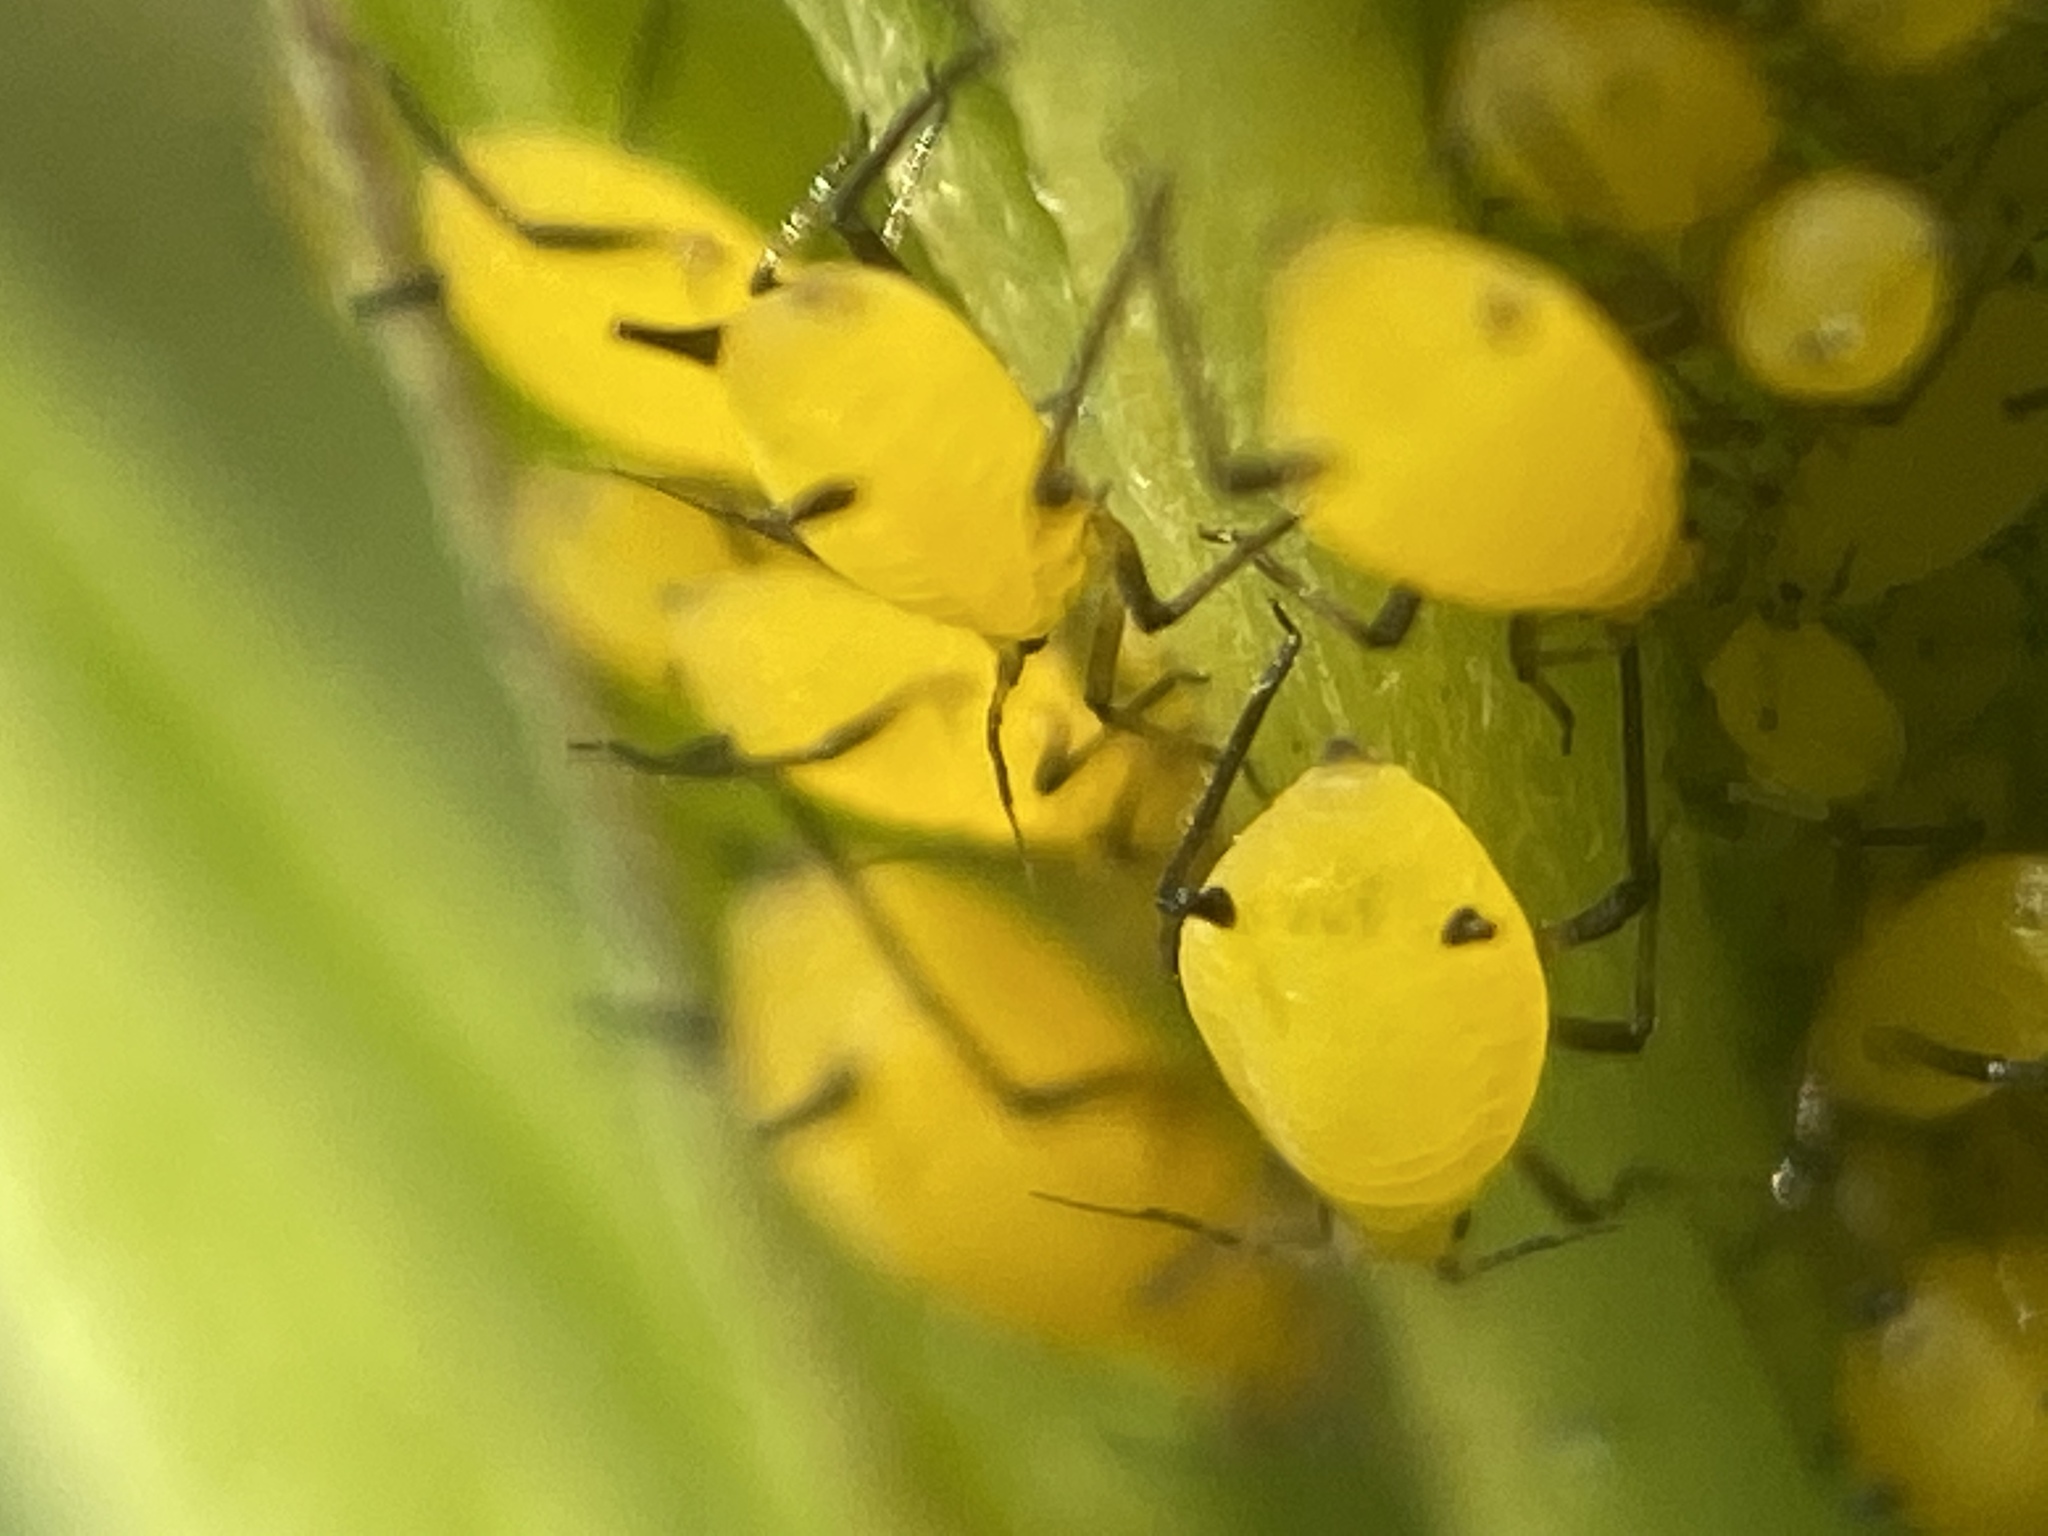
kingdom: Animalia
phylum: Arthropoda
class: Insecta
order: Hemiptera
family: Aphididae
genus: Aphis
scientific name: Aphis nerii
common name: Oleander aphid
